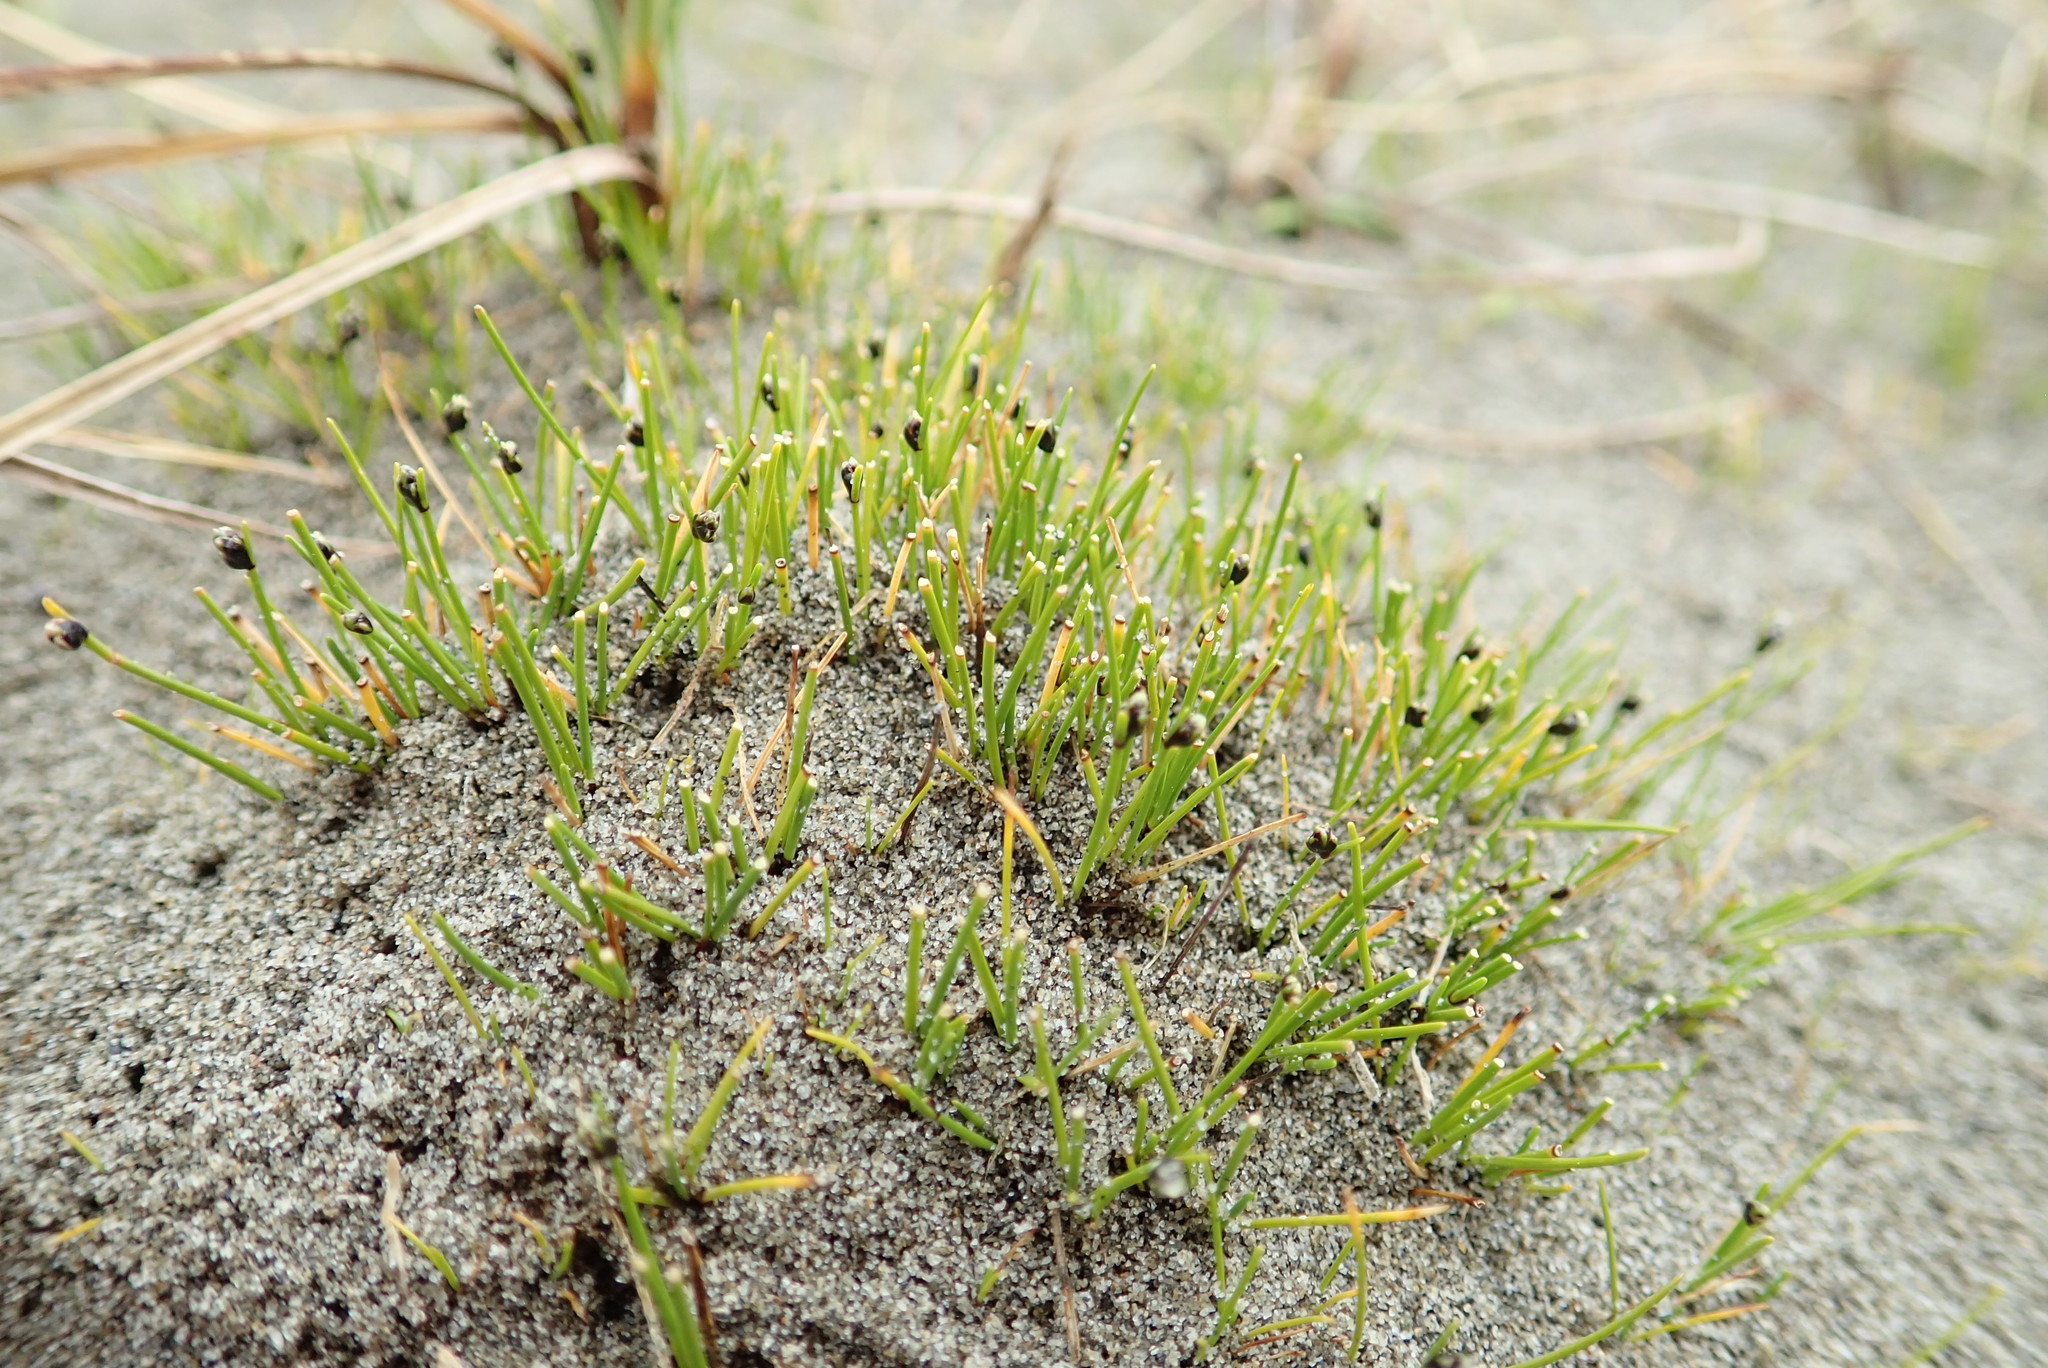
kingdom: Plantae
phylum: Tracheophyta
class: Liliopsida
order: Poales
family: Cyperaceae
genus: Isolepis
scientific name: Isolepis cernua
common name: Slender club-rush
